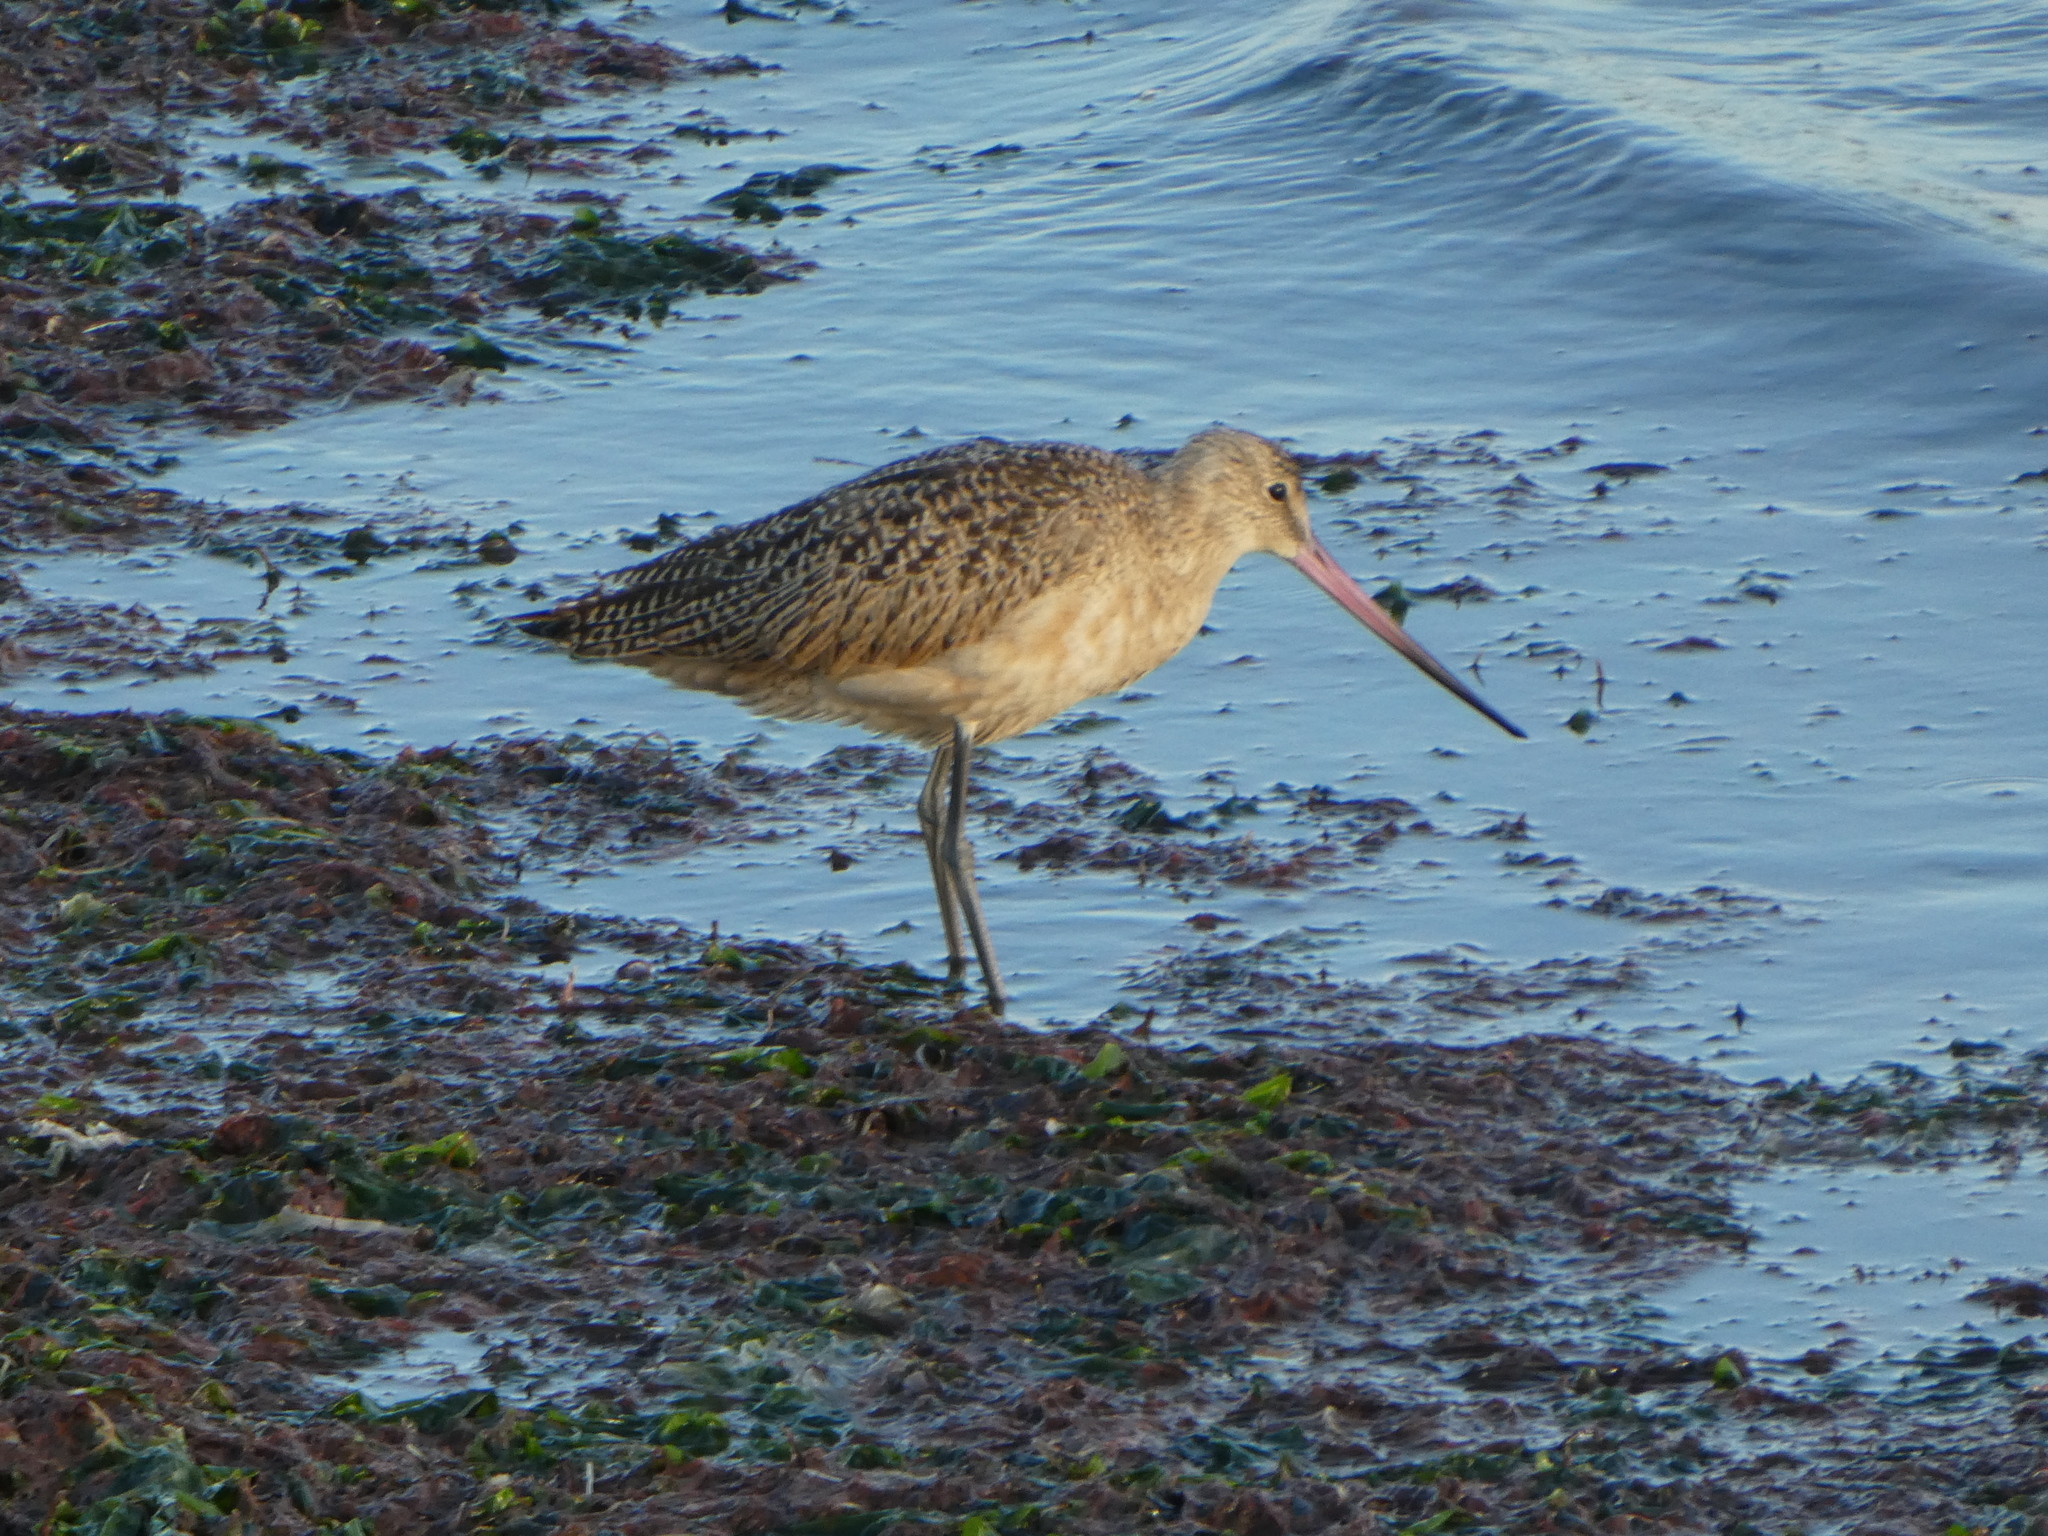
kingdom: Animalia
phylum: Chordata
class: Aves
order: Charadriiformes
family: Scolopacidae
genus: Limosa
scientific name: Limosa fedoa
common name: Marbled godwit
